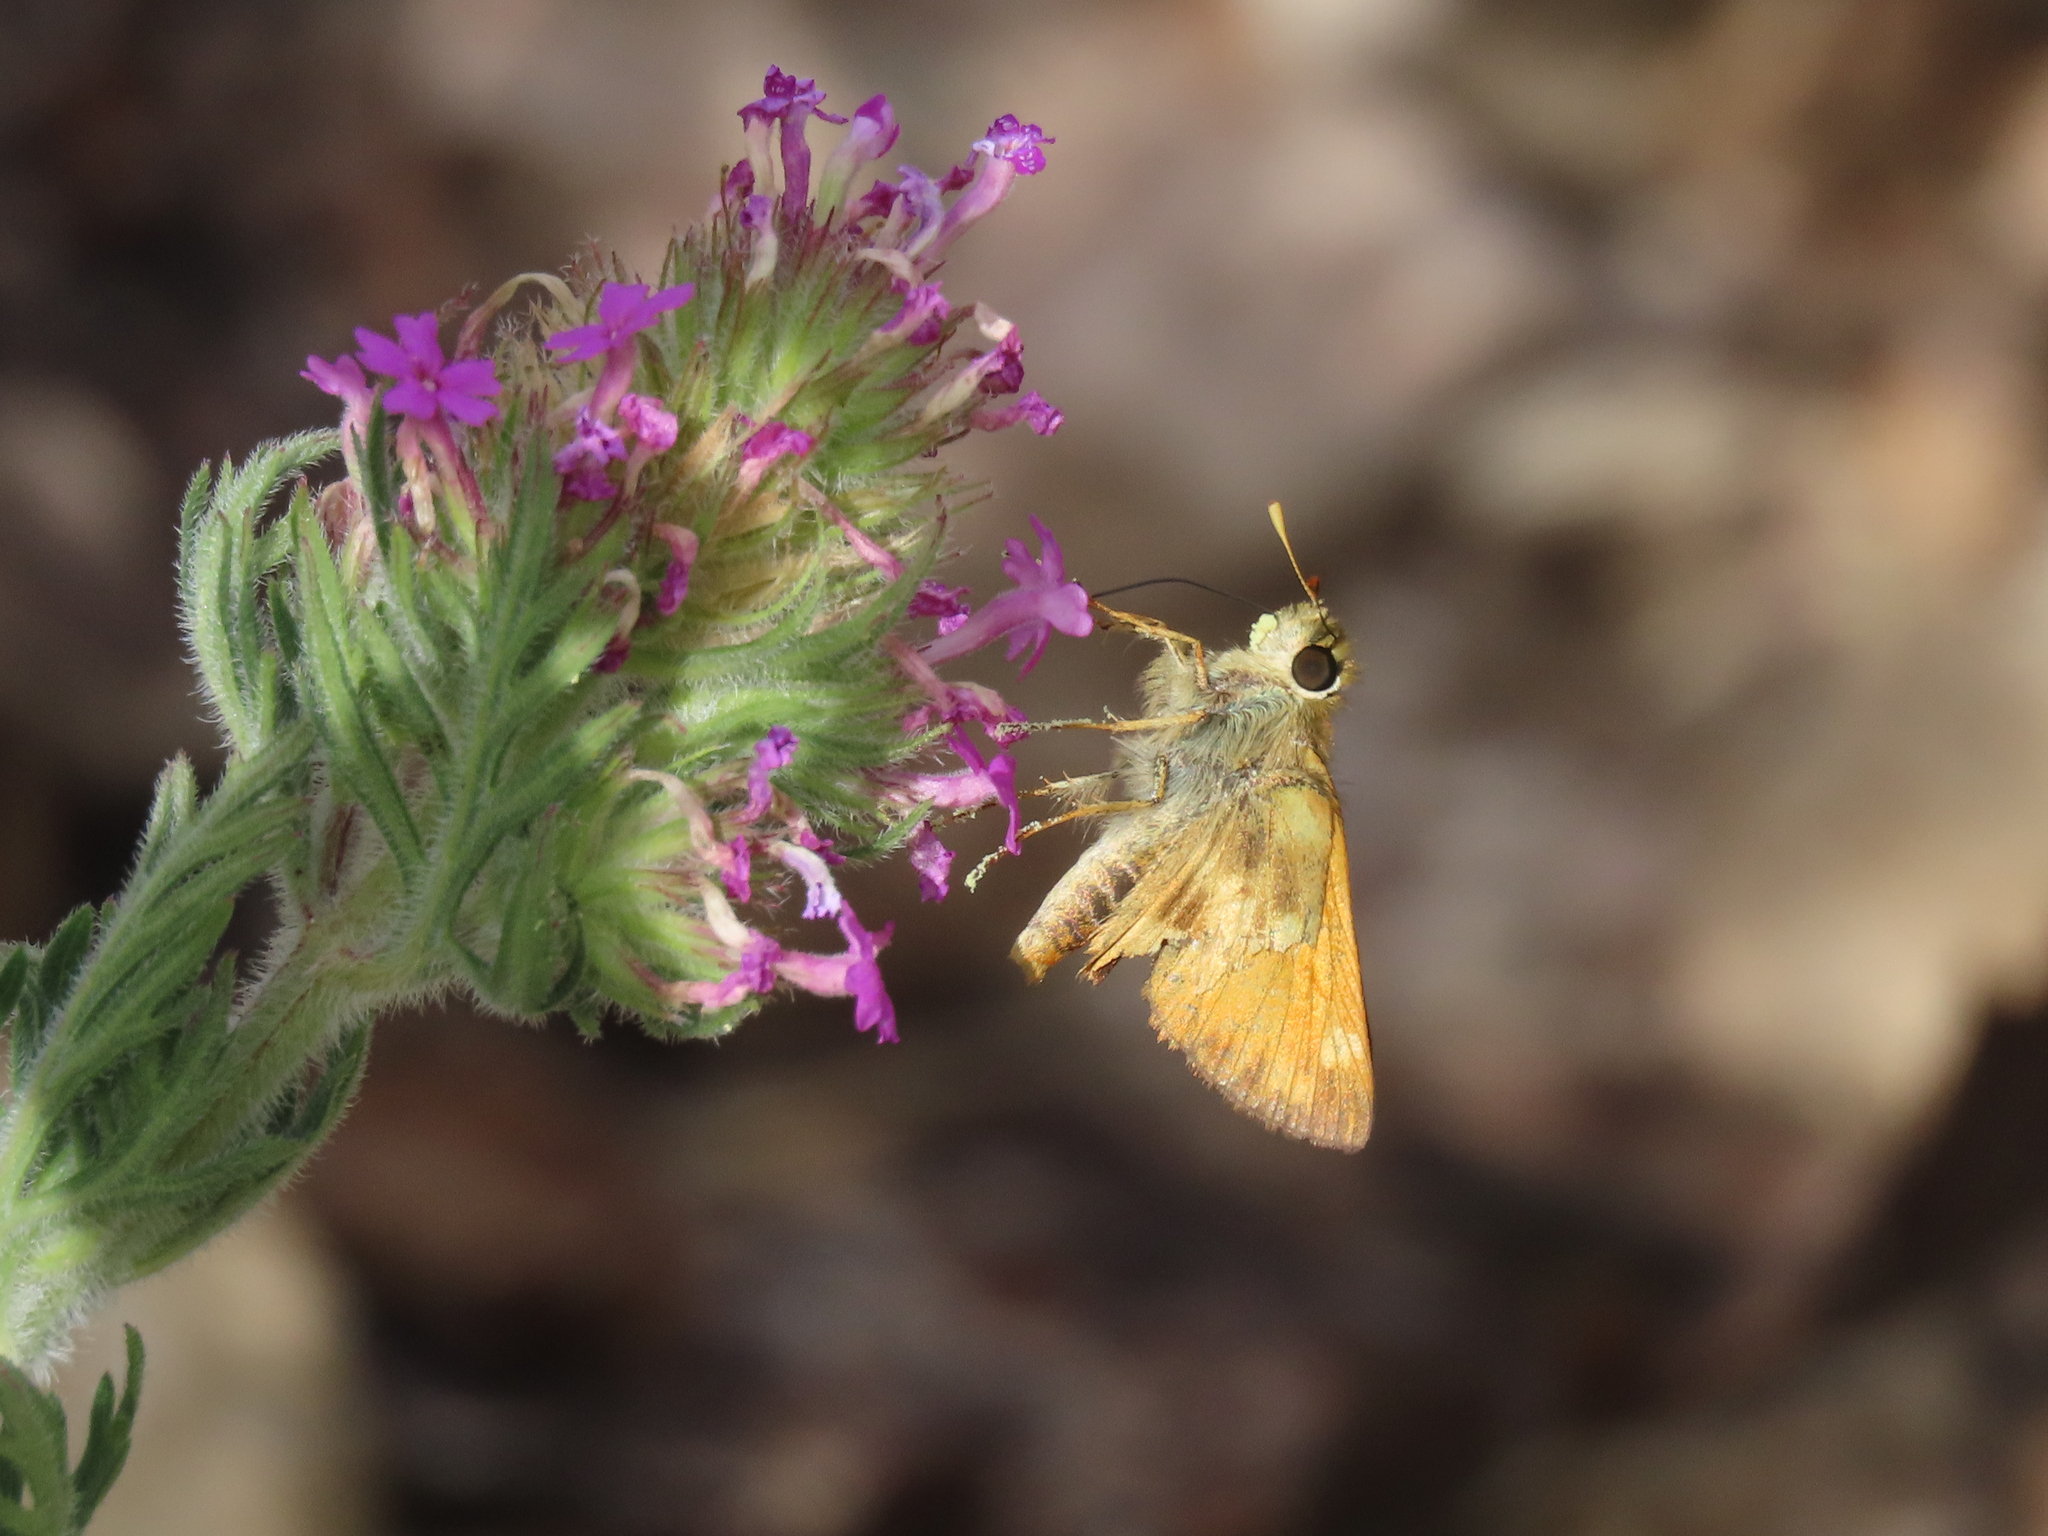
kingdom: Animalia
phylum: Arthropoda
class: Insecta
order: Lepidoptera
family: Hesperiidae
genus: Lon
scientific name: Lon taxiles
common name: Taxiles skipper
